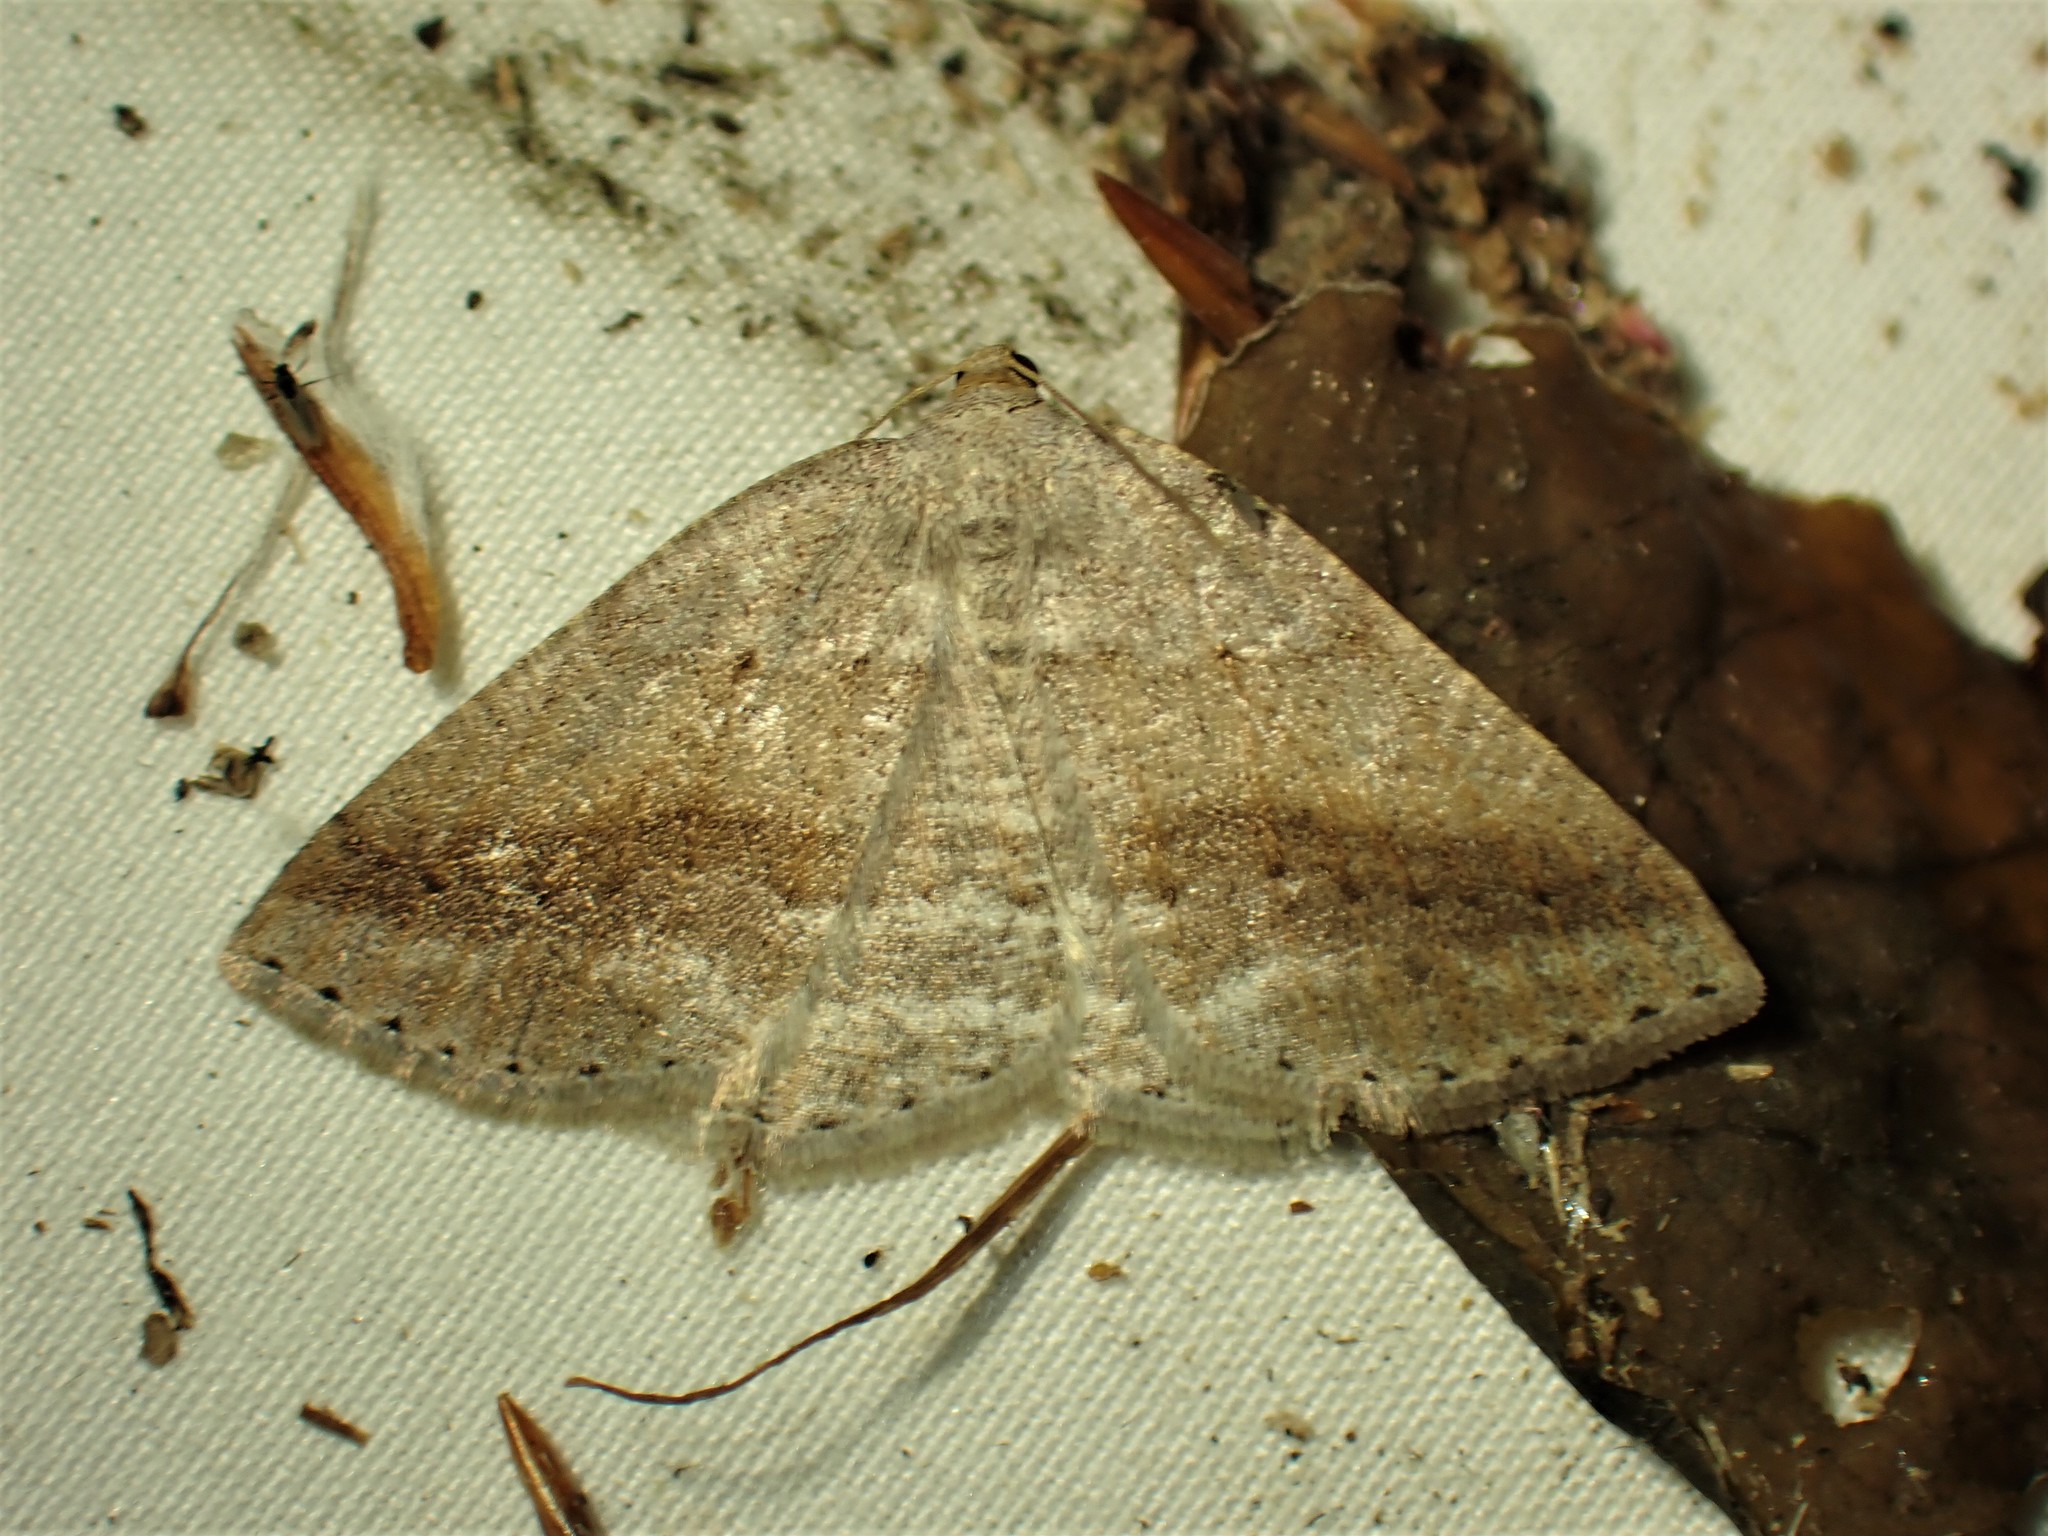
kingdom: Animalia
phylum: Arthropoda
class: Insecta
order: Lepidoptera
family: Geometridae
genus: Tacparia
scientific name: Tacparia detersata
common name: Pale alder moth
